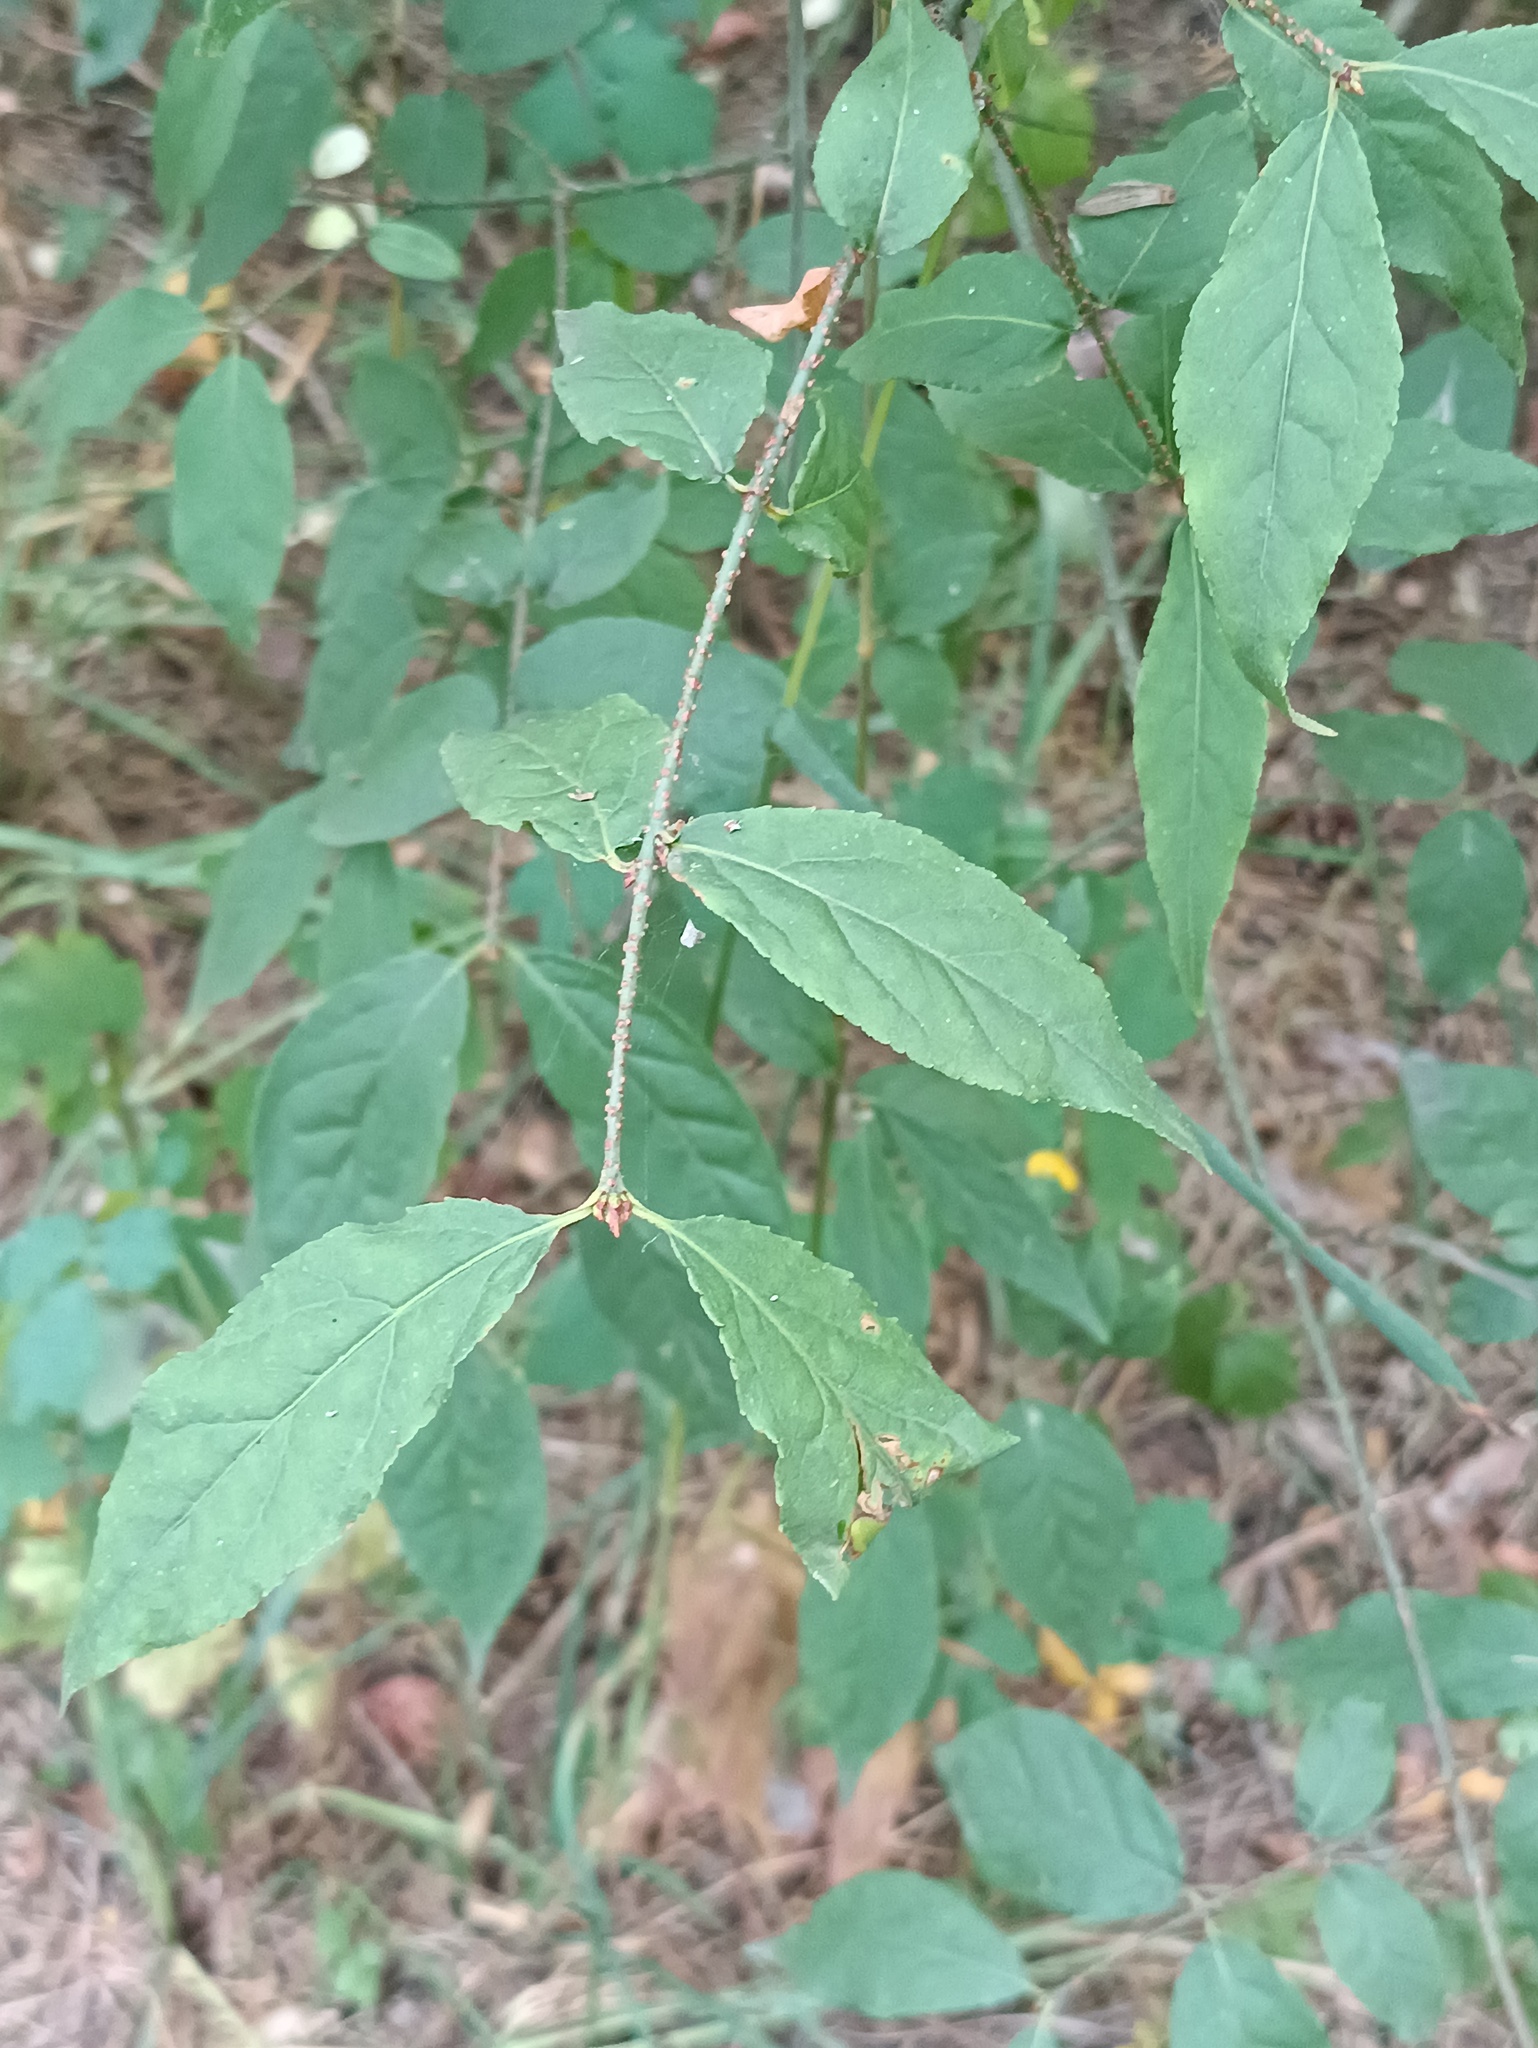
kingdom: Plantae
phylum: Tracheophyta
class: Magnoliopsida
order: Celastrales
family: Celastraceae
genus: Euonymus
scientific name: Euonymus verrucosus
